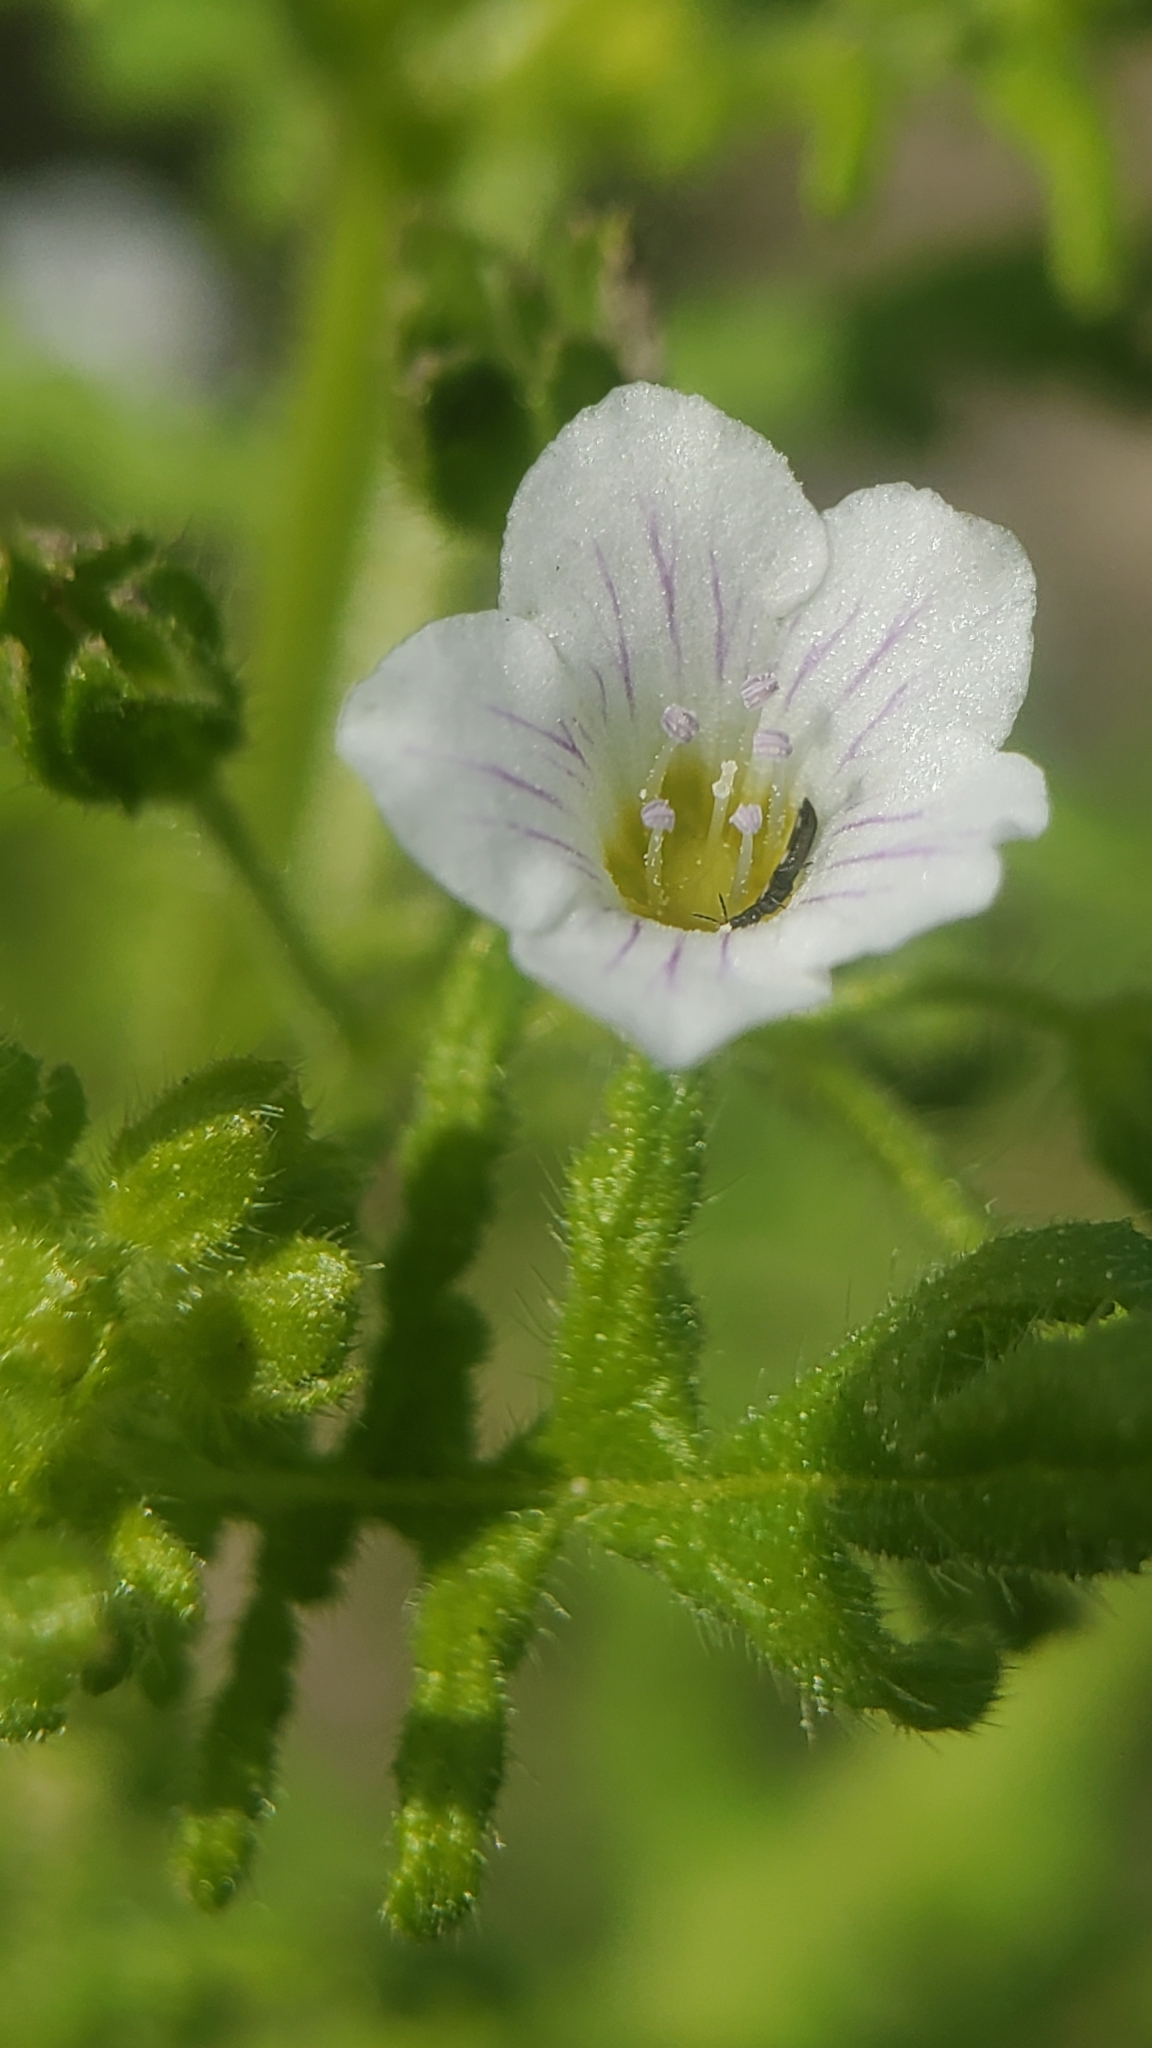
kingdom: Plantae
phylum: Tracheophyta
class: Magnoliopsida
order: Boraginales
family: Hydrophyllaceae
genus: Eucrypta
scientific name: Eucrypta chrysanthemifolia
